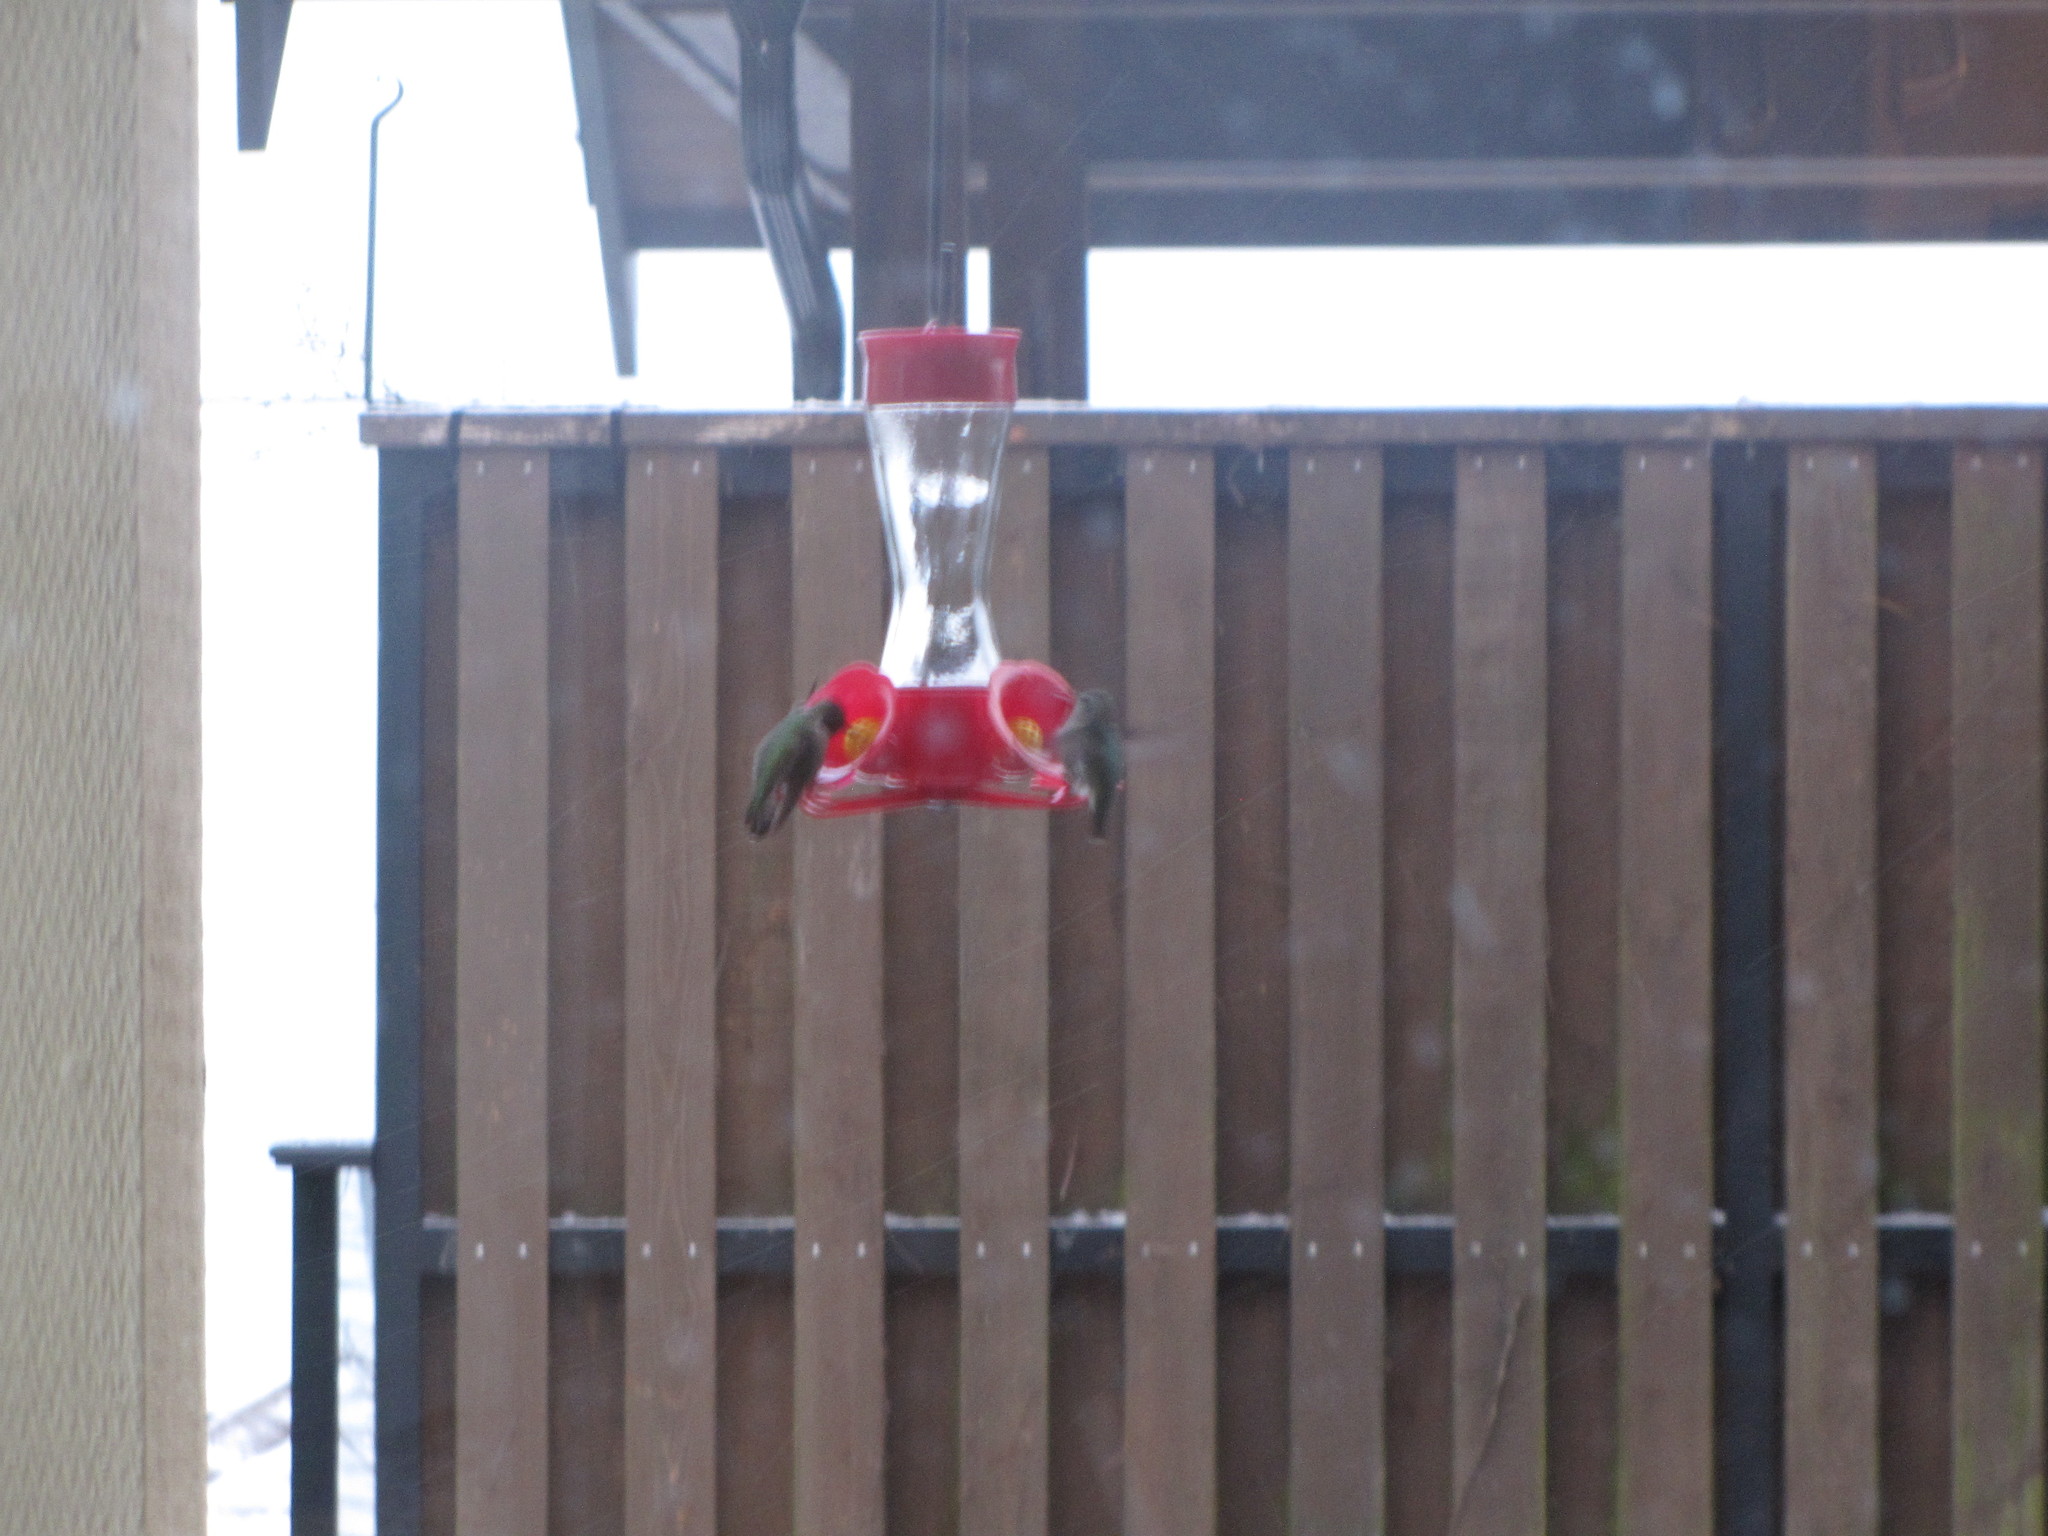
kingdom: Animalia
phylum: Chordata
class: Aves
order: Apodiformes
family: Trochilidae
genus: Calypte
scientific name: Calypte anna
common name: Anna's hummingbird
